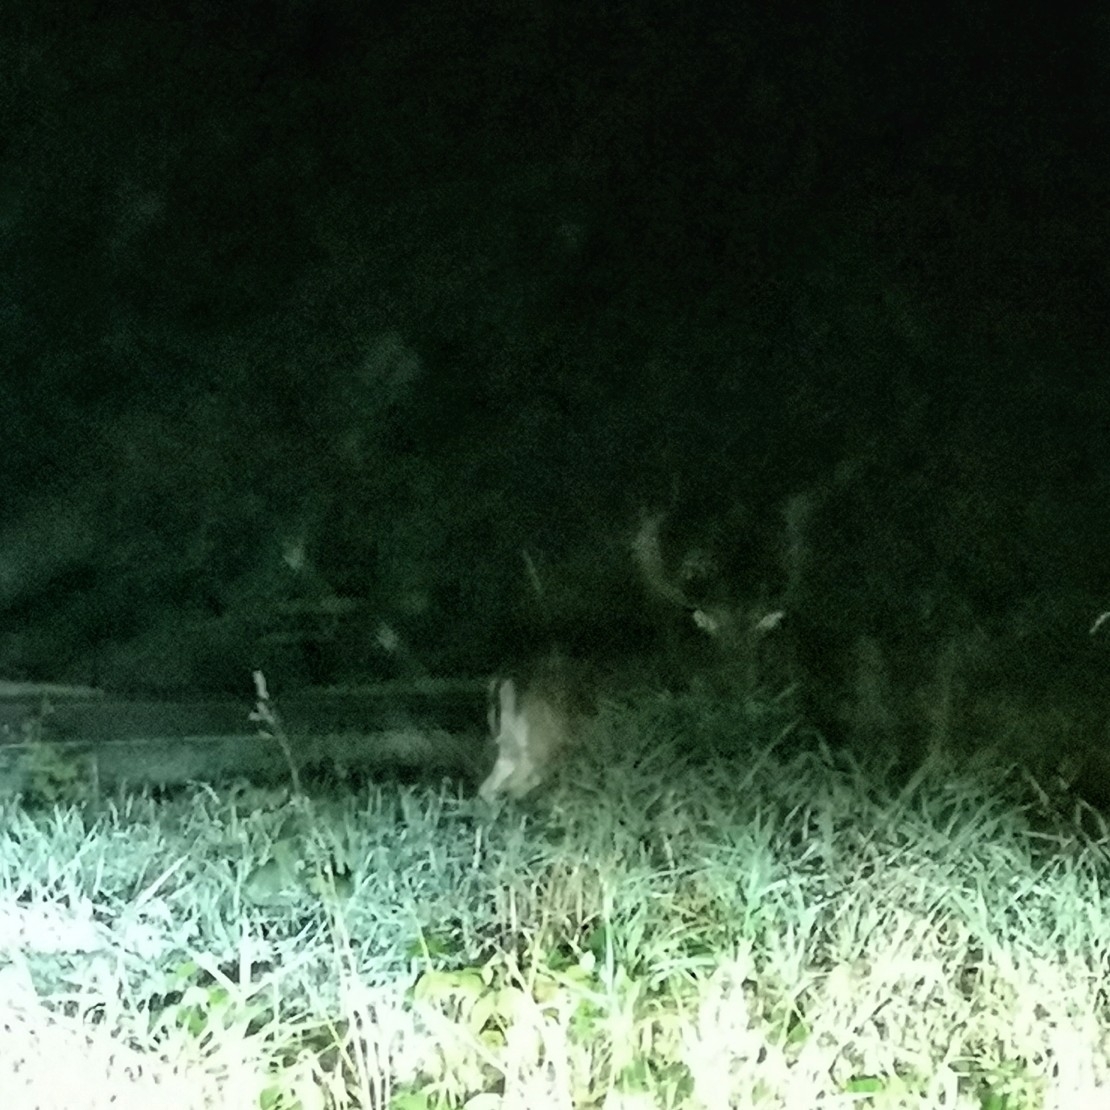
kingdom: Animalia
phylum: Chordata
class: Mammalia
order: Artiodactyla
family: Cervidae
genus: Dama
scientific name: Dama dama
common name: Fallow deer
